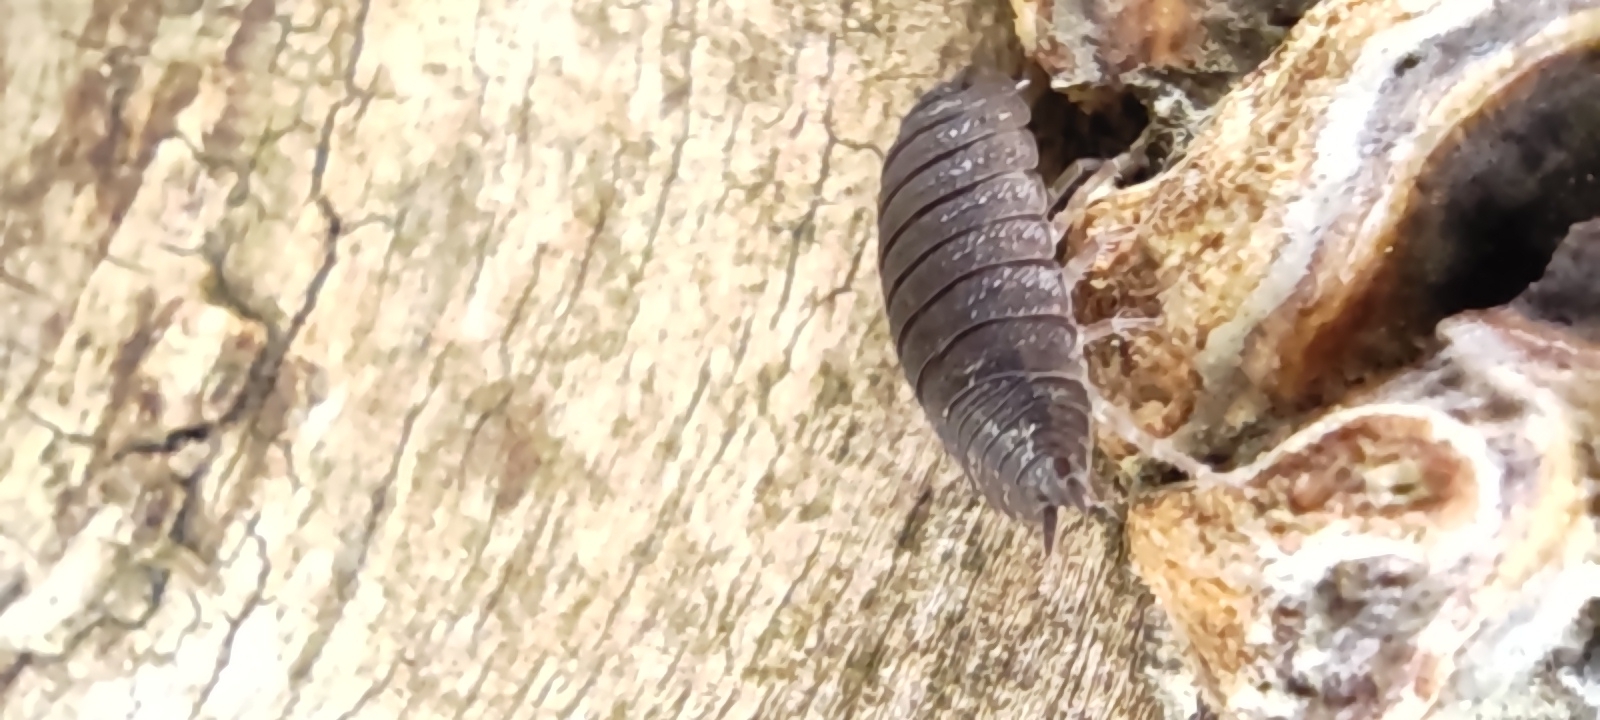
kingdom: Animalia
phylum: Arthropoda
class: Malacostraca
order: Isopoda
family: Porcellionidae
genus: Porcellio
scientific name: Porcellio scaber
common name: Common rough woodlouse
